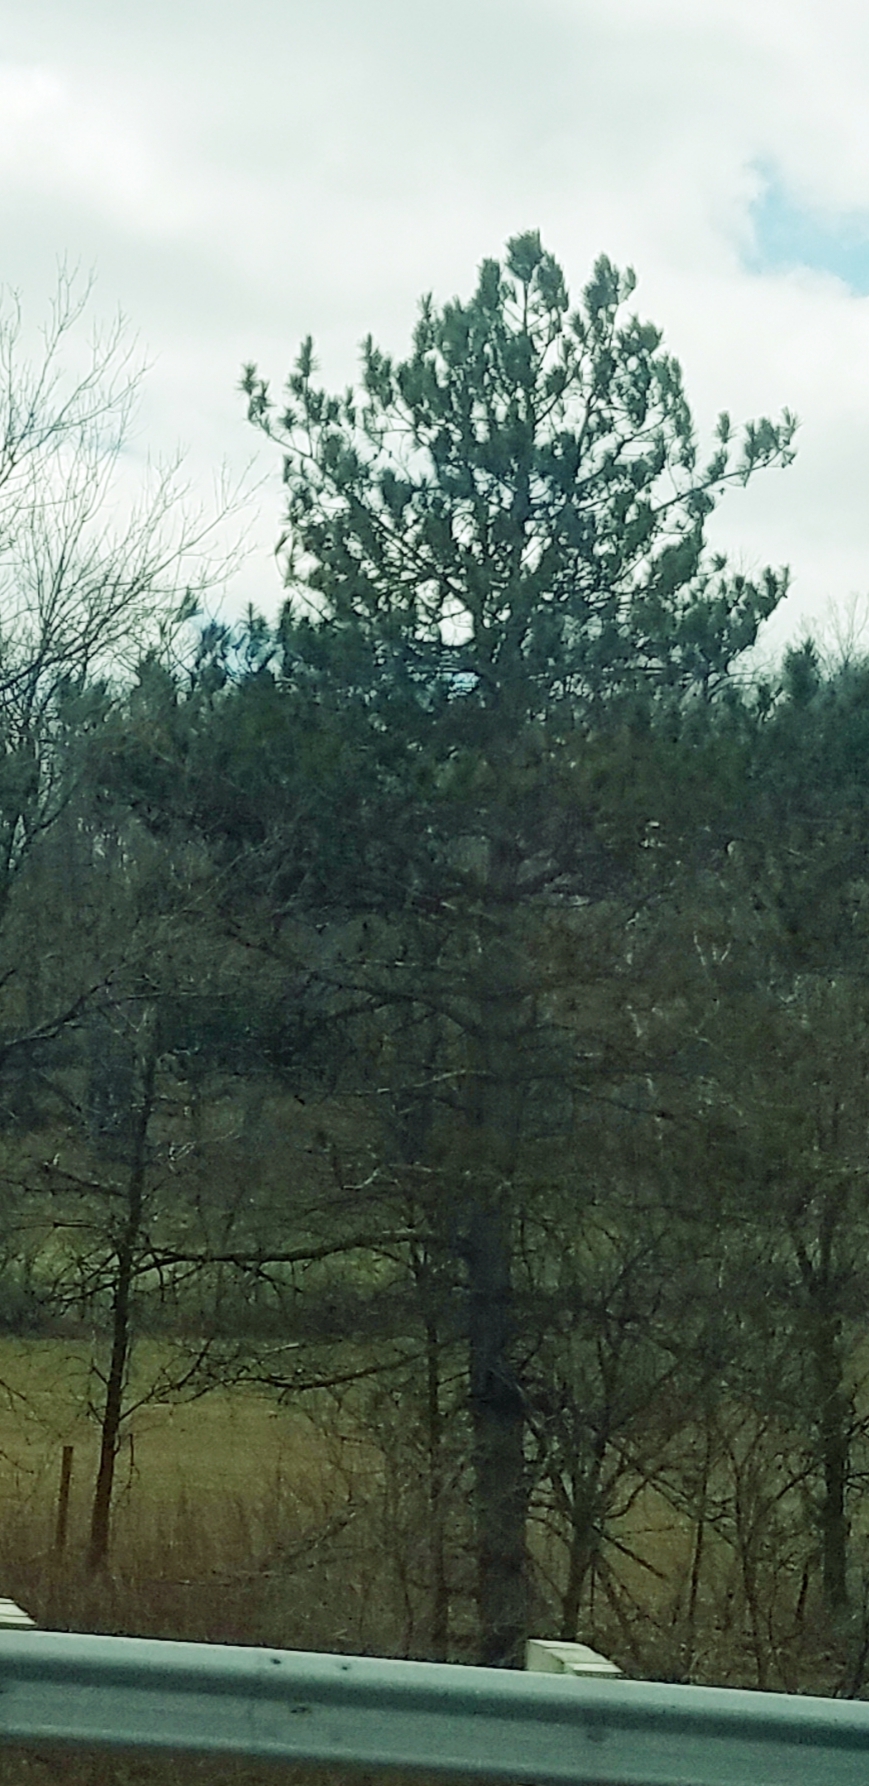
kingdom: Plantae
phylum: Tracheophyta
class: Pinopsida
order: Pinales
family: Pinaceae
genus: Pinus
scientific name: Pinus strobus
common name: Weymouth pine
